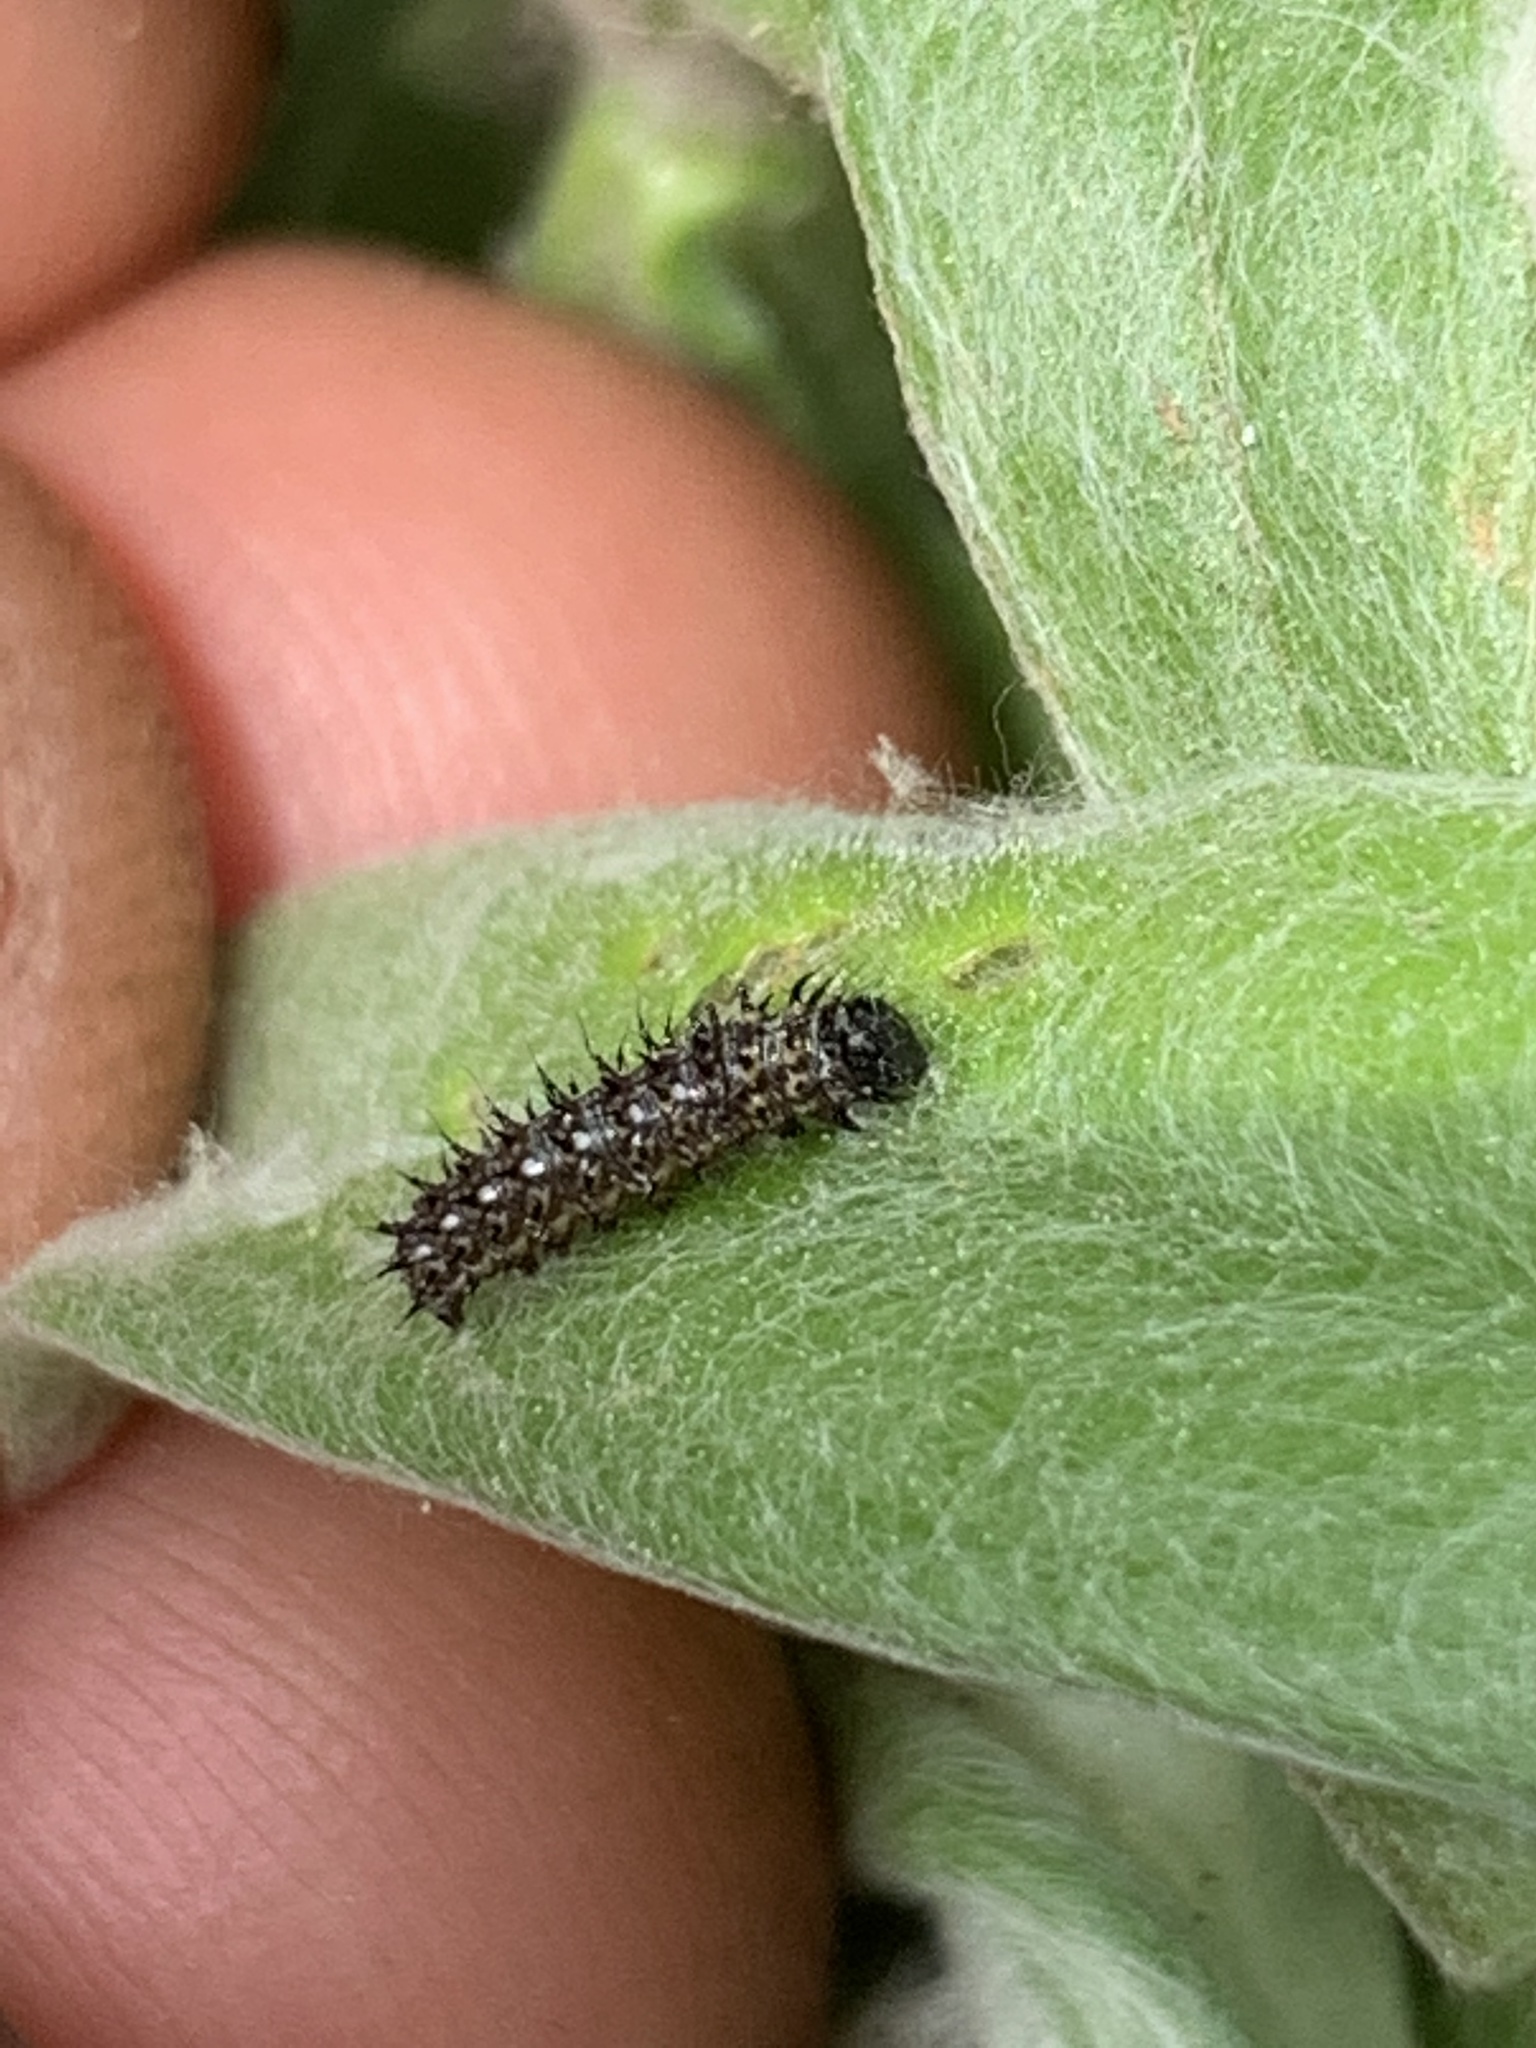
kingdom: Animalia
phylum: Arthropoda
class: Insecta
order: Lepidoptera
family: Nymphalidae
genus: Vanessa
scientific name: Vanessa virginiensis
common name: American lady
